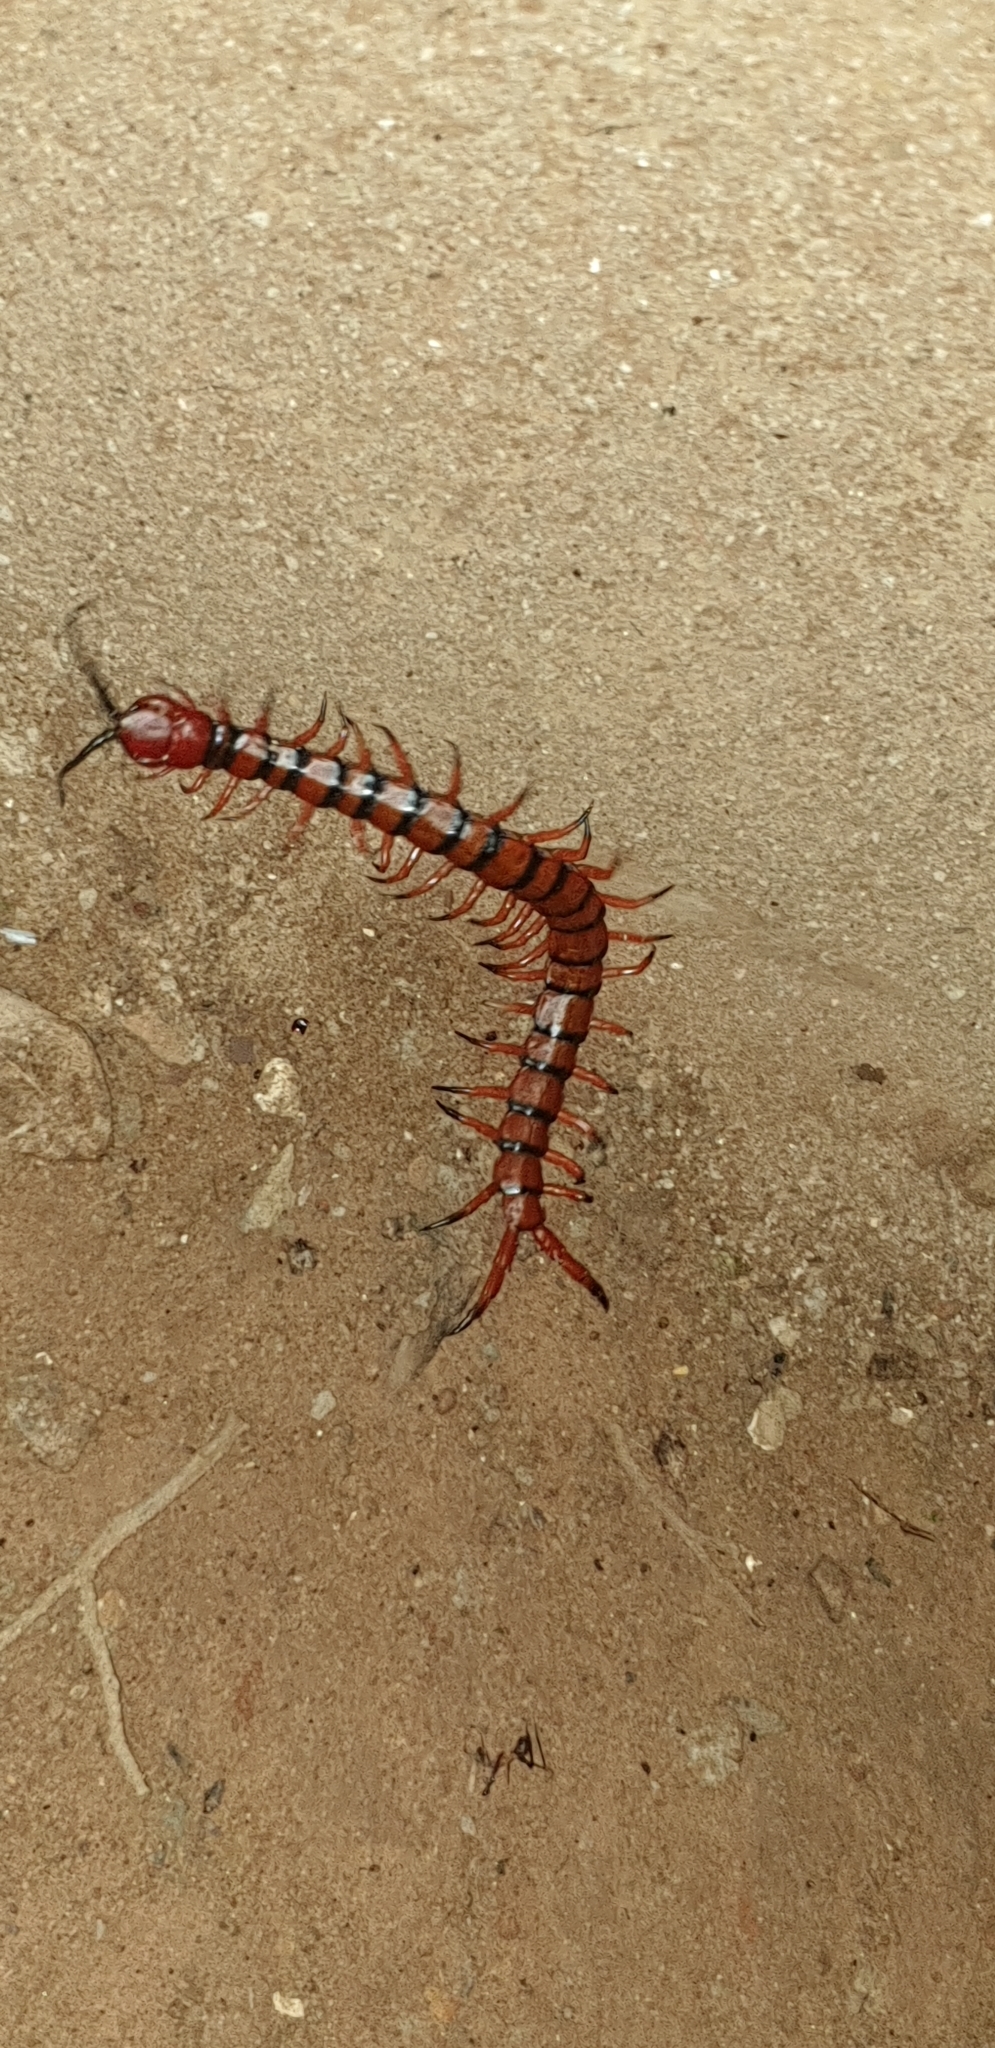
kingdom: Animalia
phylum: Arthropoda
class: Chilopoda
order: Scolopendromorpha
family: Scolopendridae
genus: Scolopendra
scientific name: Scolopendra morsitans
